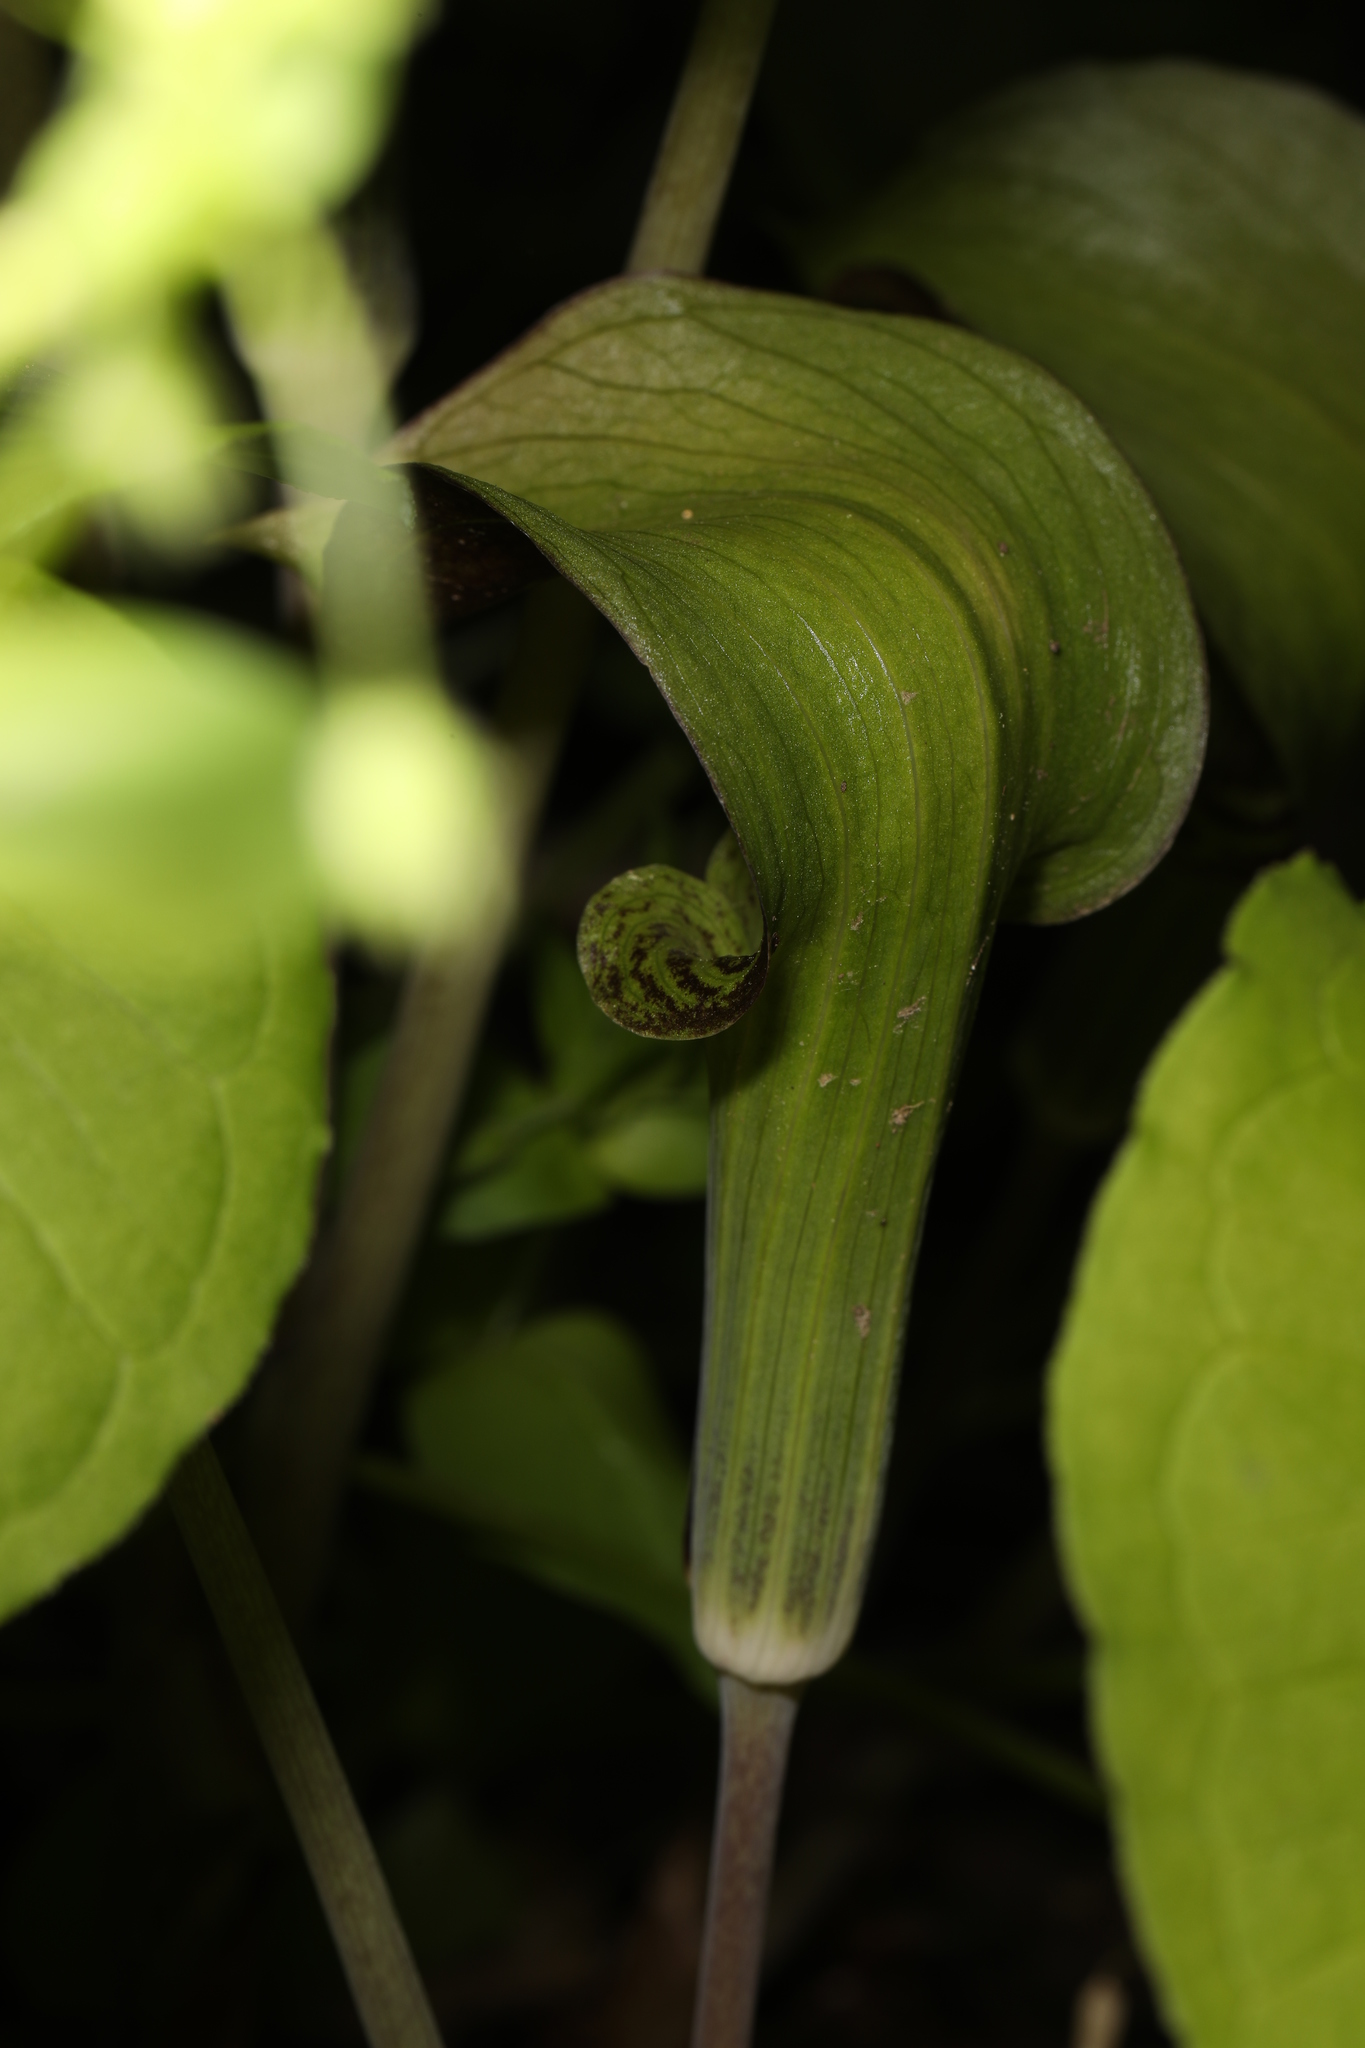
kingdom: Plantae
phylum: Tracheophyta
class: Liliopsida
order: Alismatales
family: Araceae
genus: Arisaema
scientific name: Arisaema triphyllum
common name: Jack-in-the-pulpit
